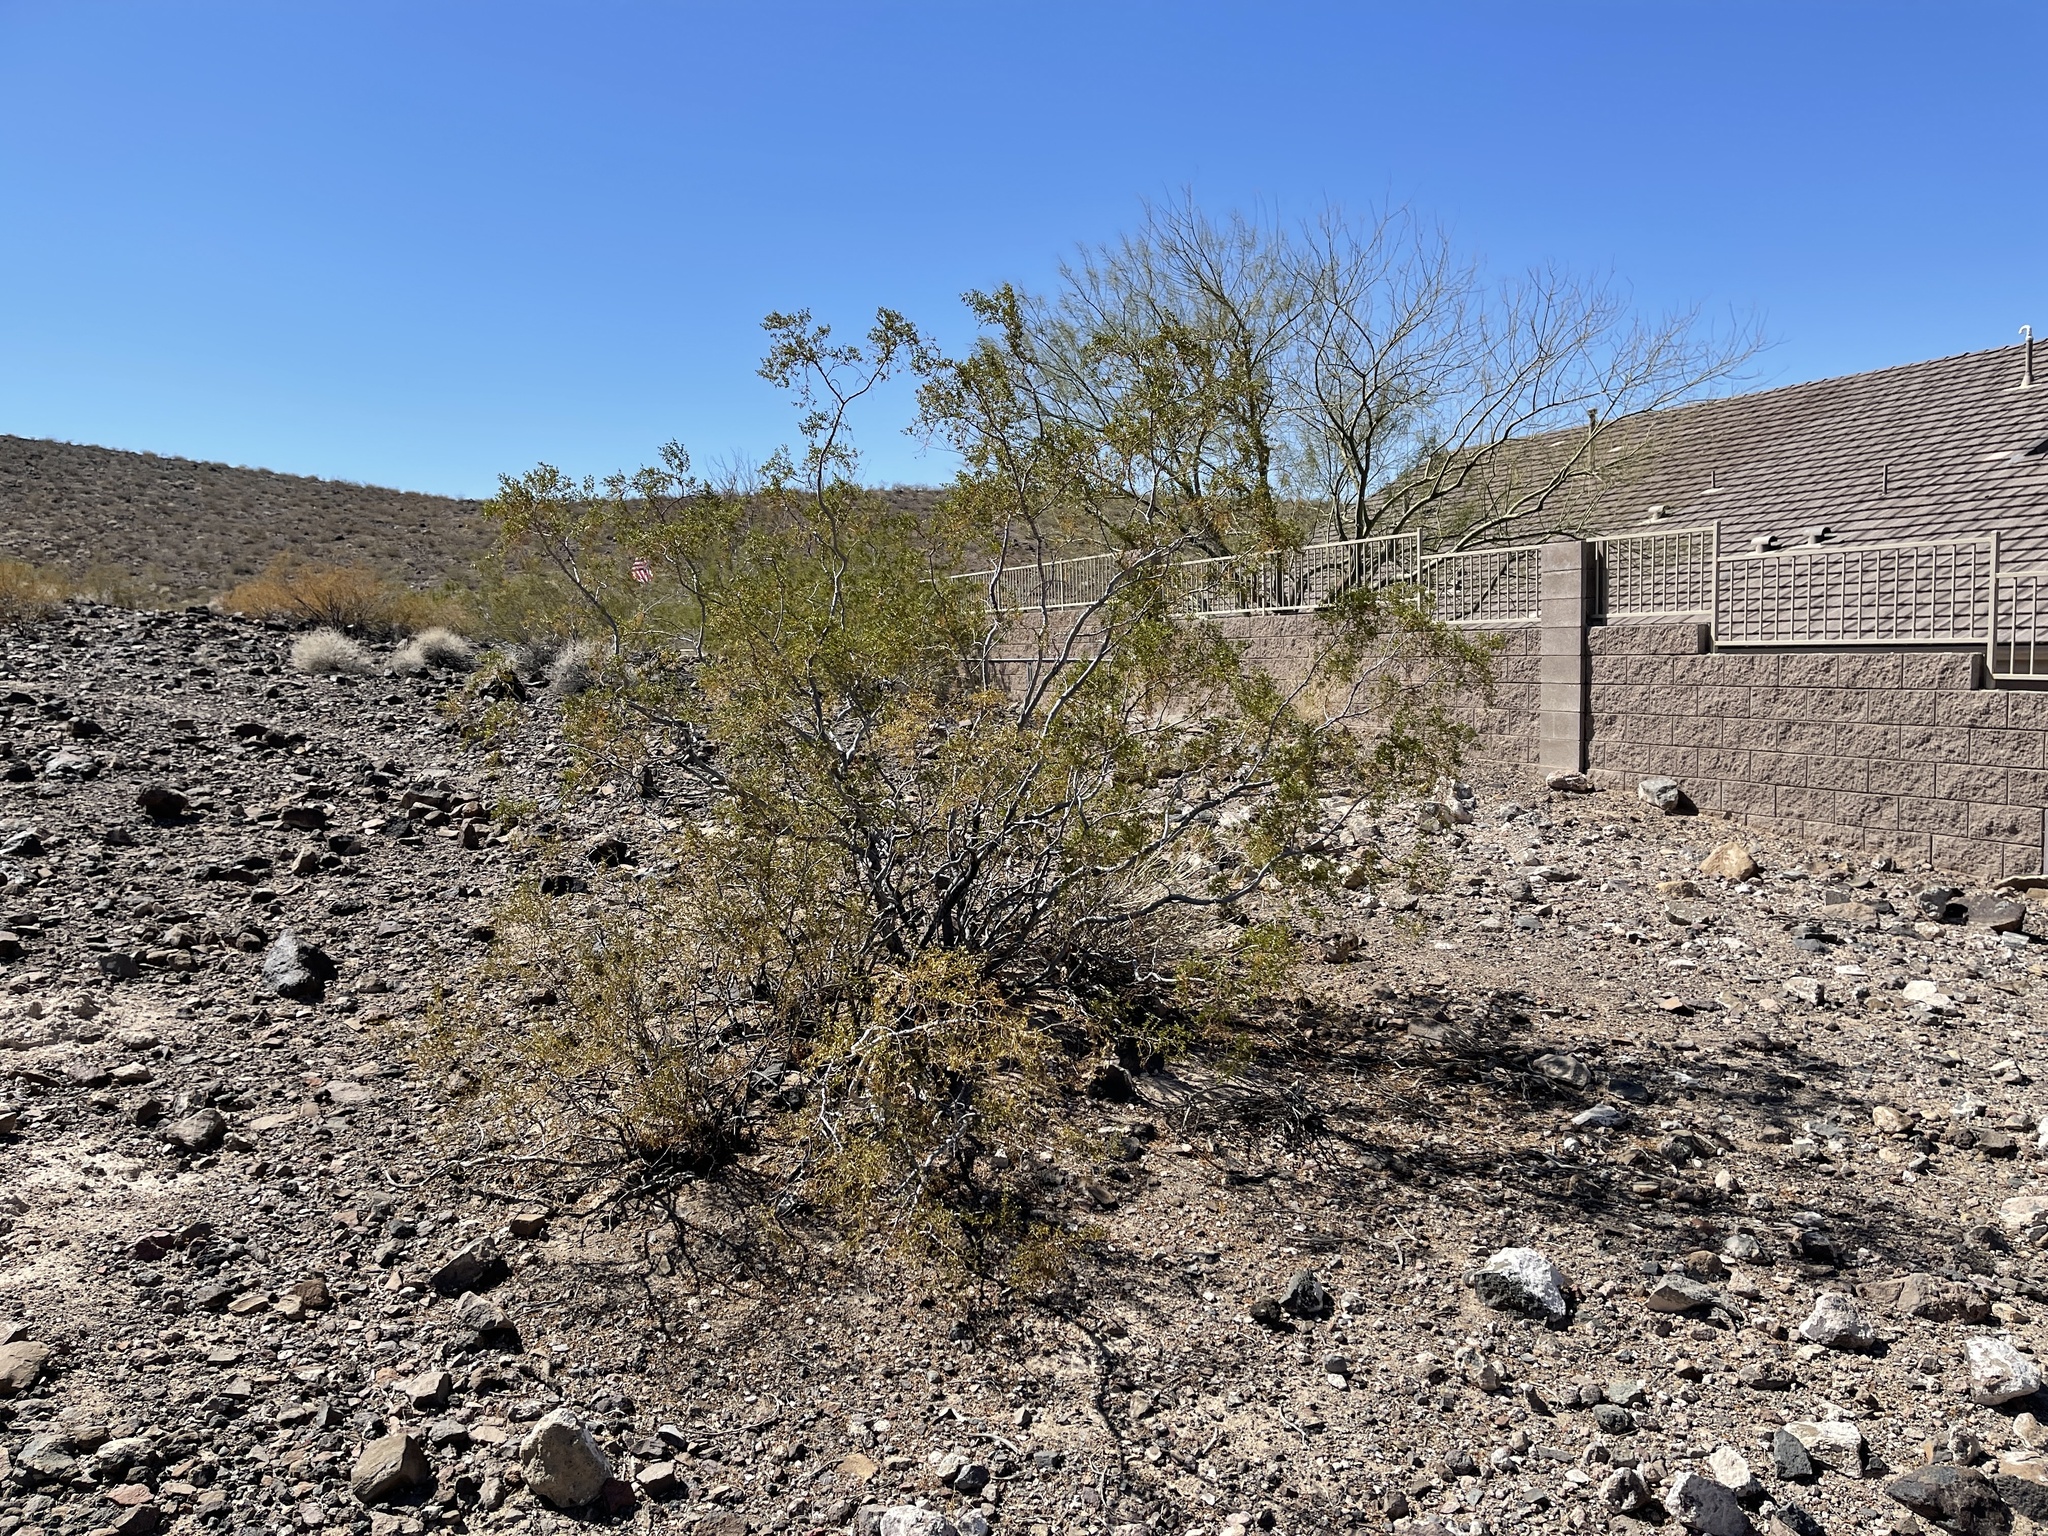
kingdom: Plantae
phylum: Tracheophyta
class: Magnoliopsida
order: Zygophyllales
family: Zygophyllaceae
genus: Larrea
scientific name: Larrea tridentata
